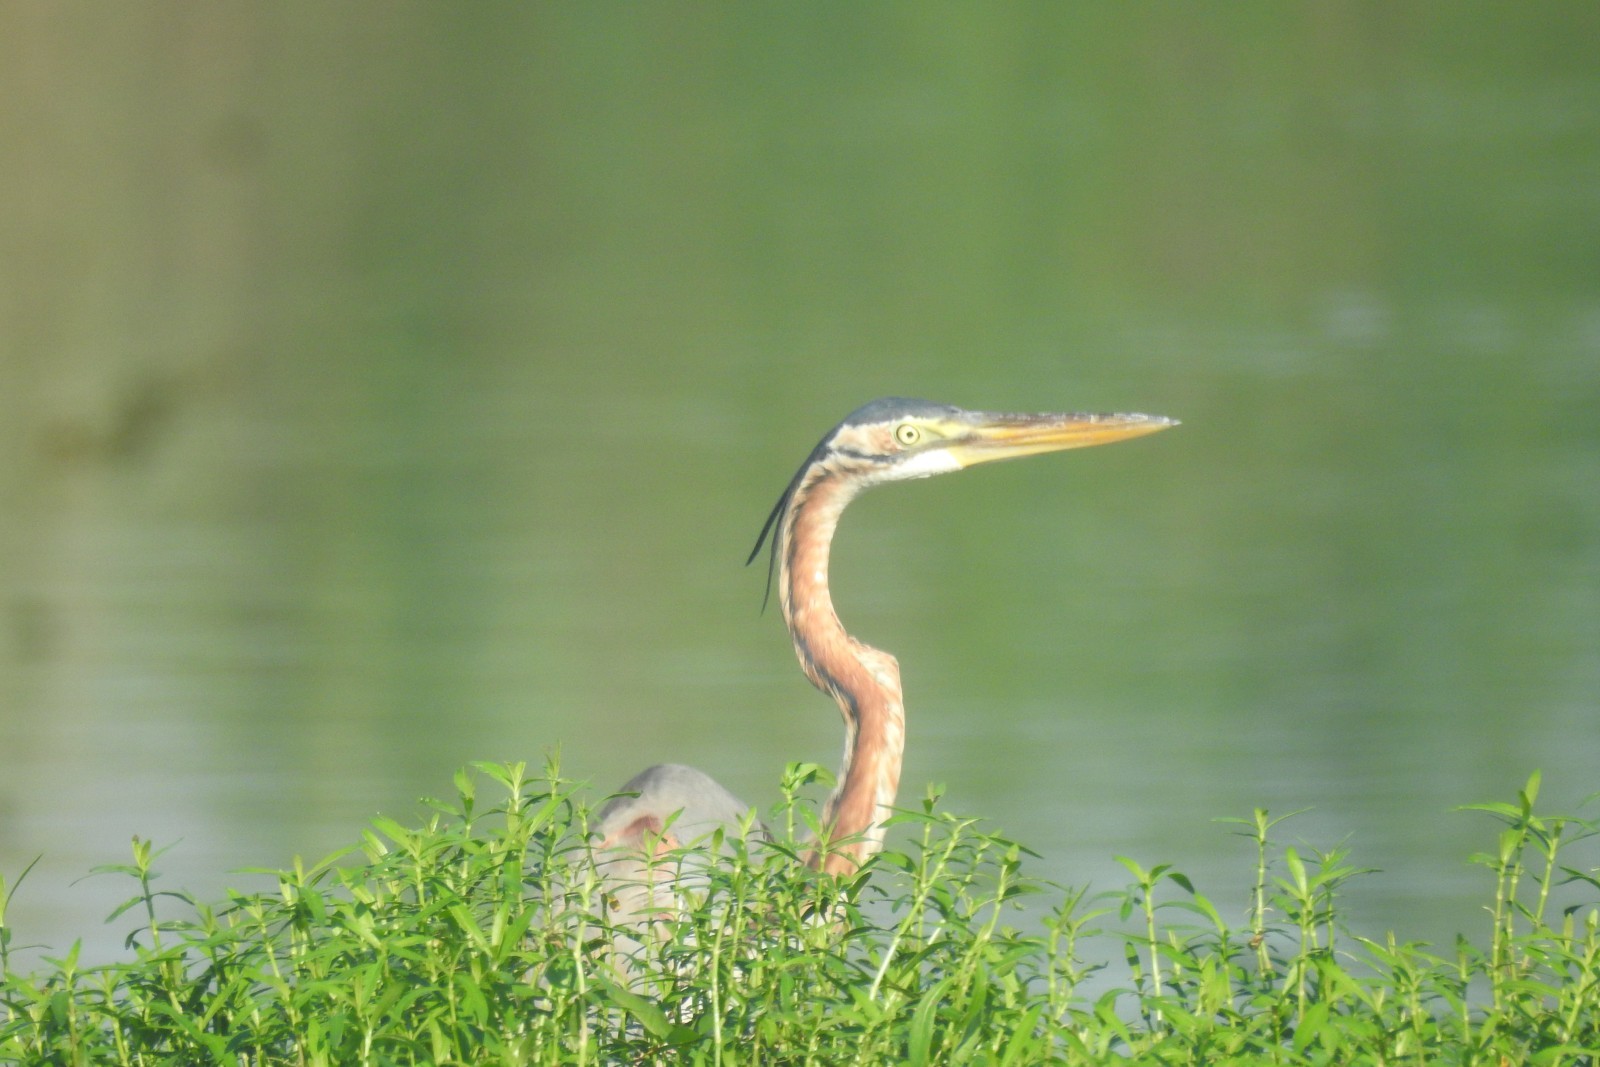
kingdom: Animalia
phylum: Chordata
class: Aves
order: Pelecaniformes
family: Ardeidae
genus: Ardea
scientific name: Ardea purpurea
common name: Purple heron
